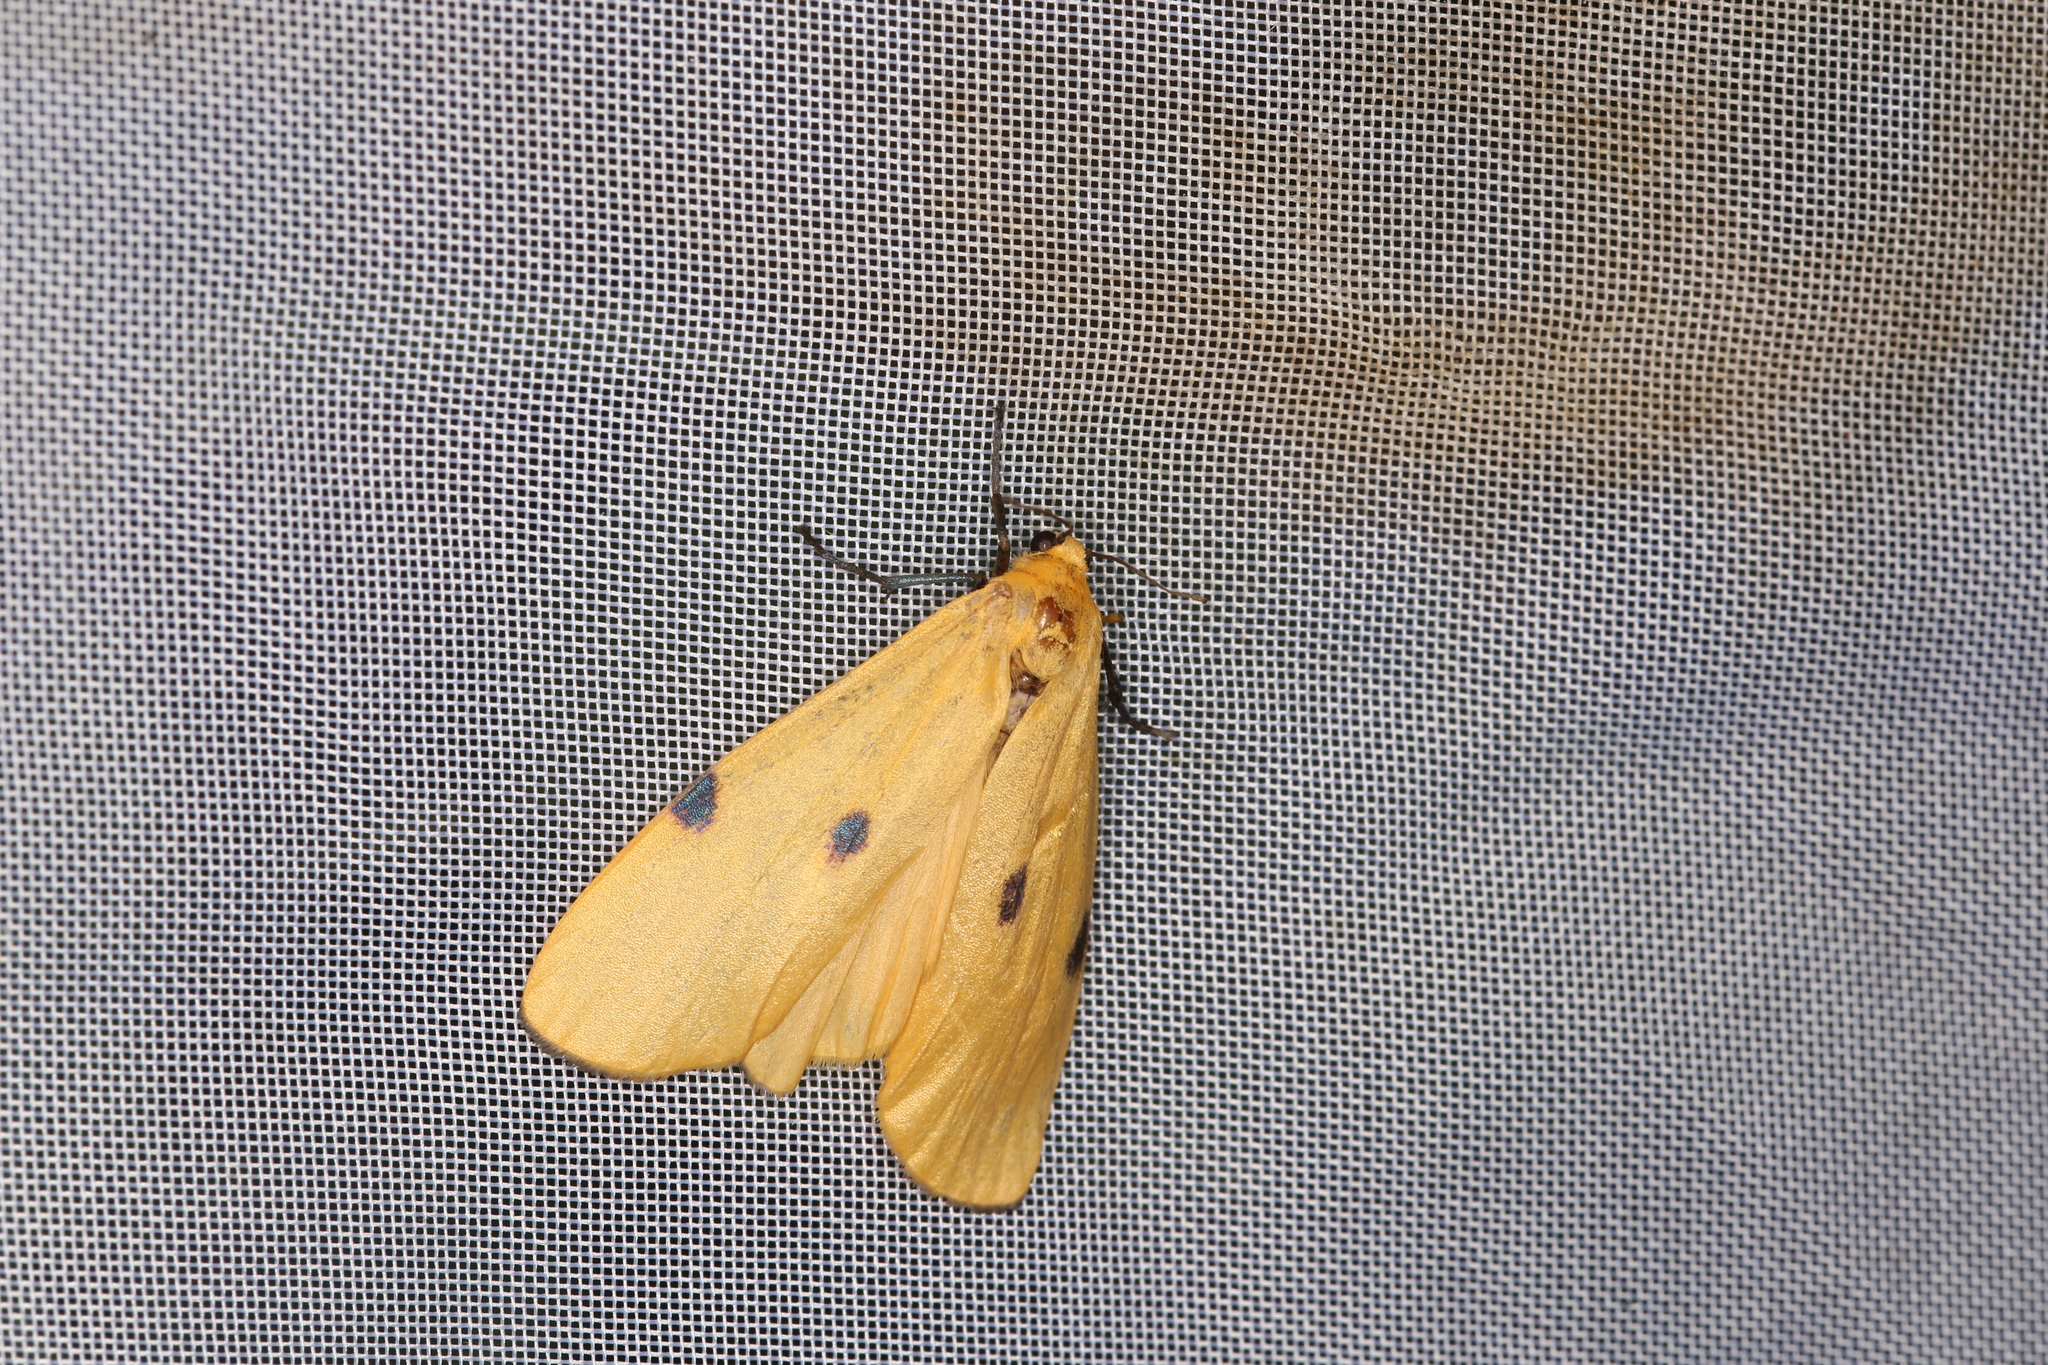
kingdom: Animalia
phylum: Arthropoda
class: Insecta
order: Lepidoptera
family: Erebidae
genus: Lithosia
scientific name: Lithosia quadra
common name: Four-spotted footman
